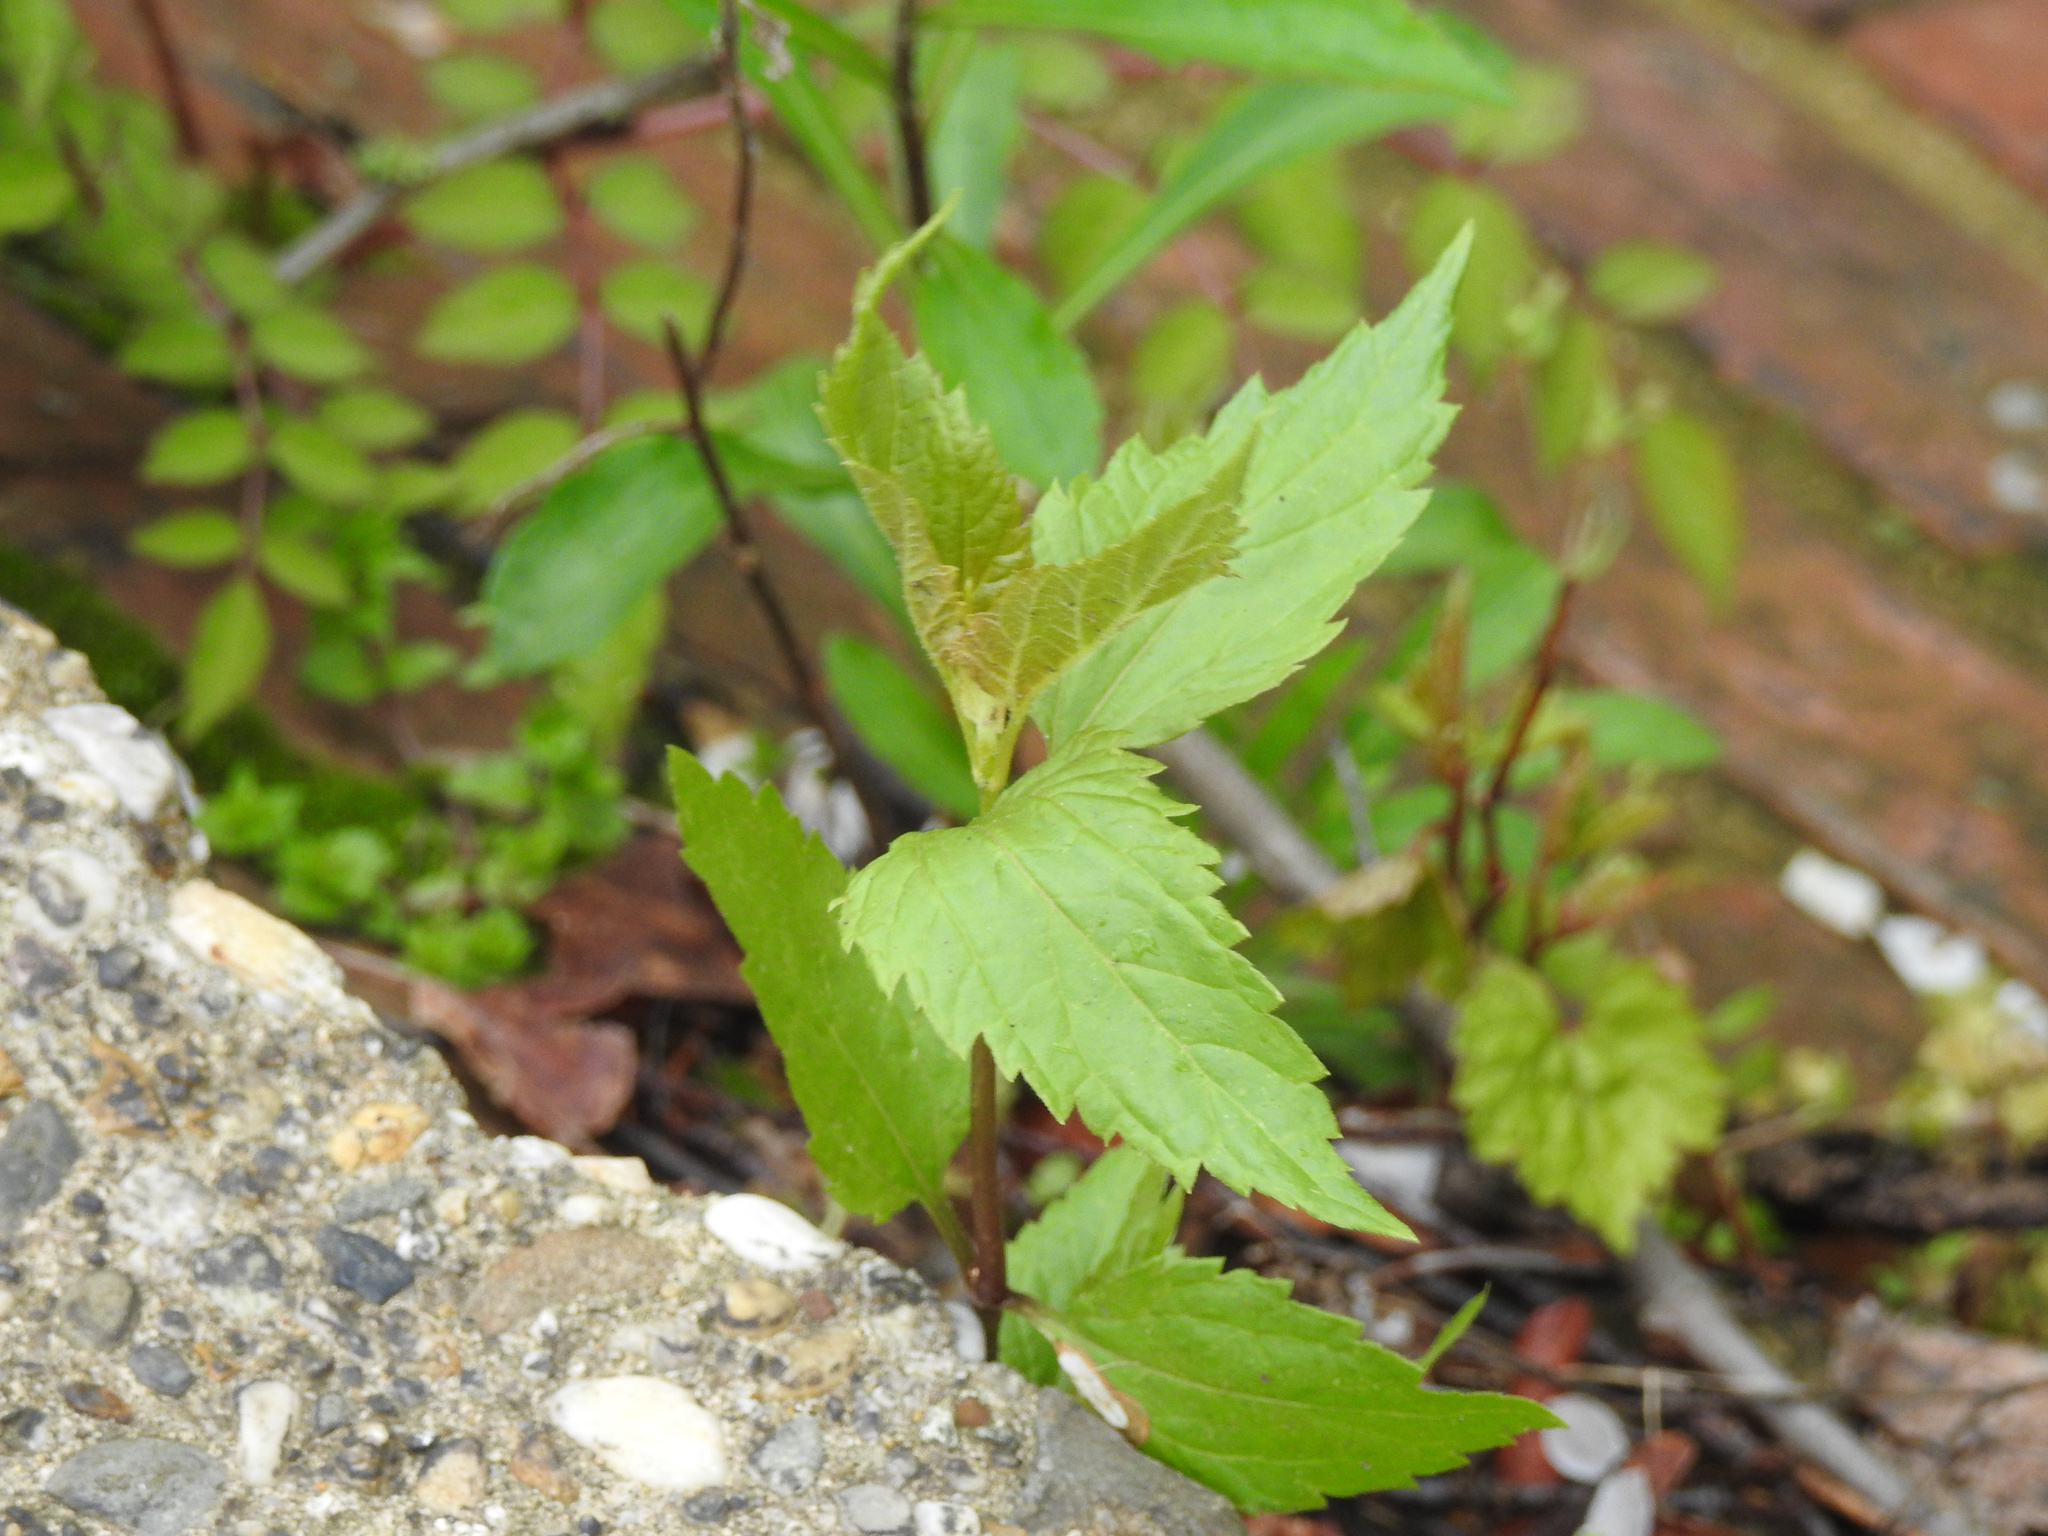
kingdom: Plantae
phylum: Tracheophyta
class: Magnoliopsida
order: Asterales
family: Asteraceae
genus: Eupatorium
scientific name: Eupatorium serotinum
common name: Late boneset
